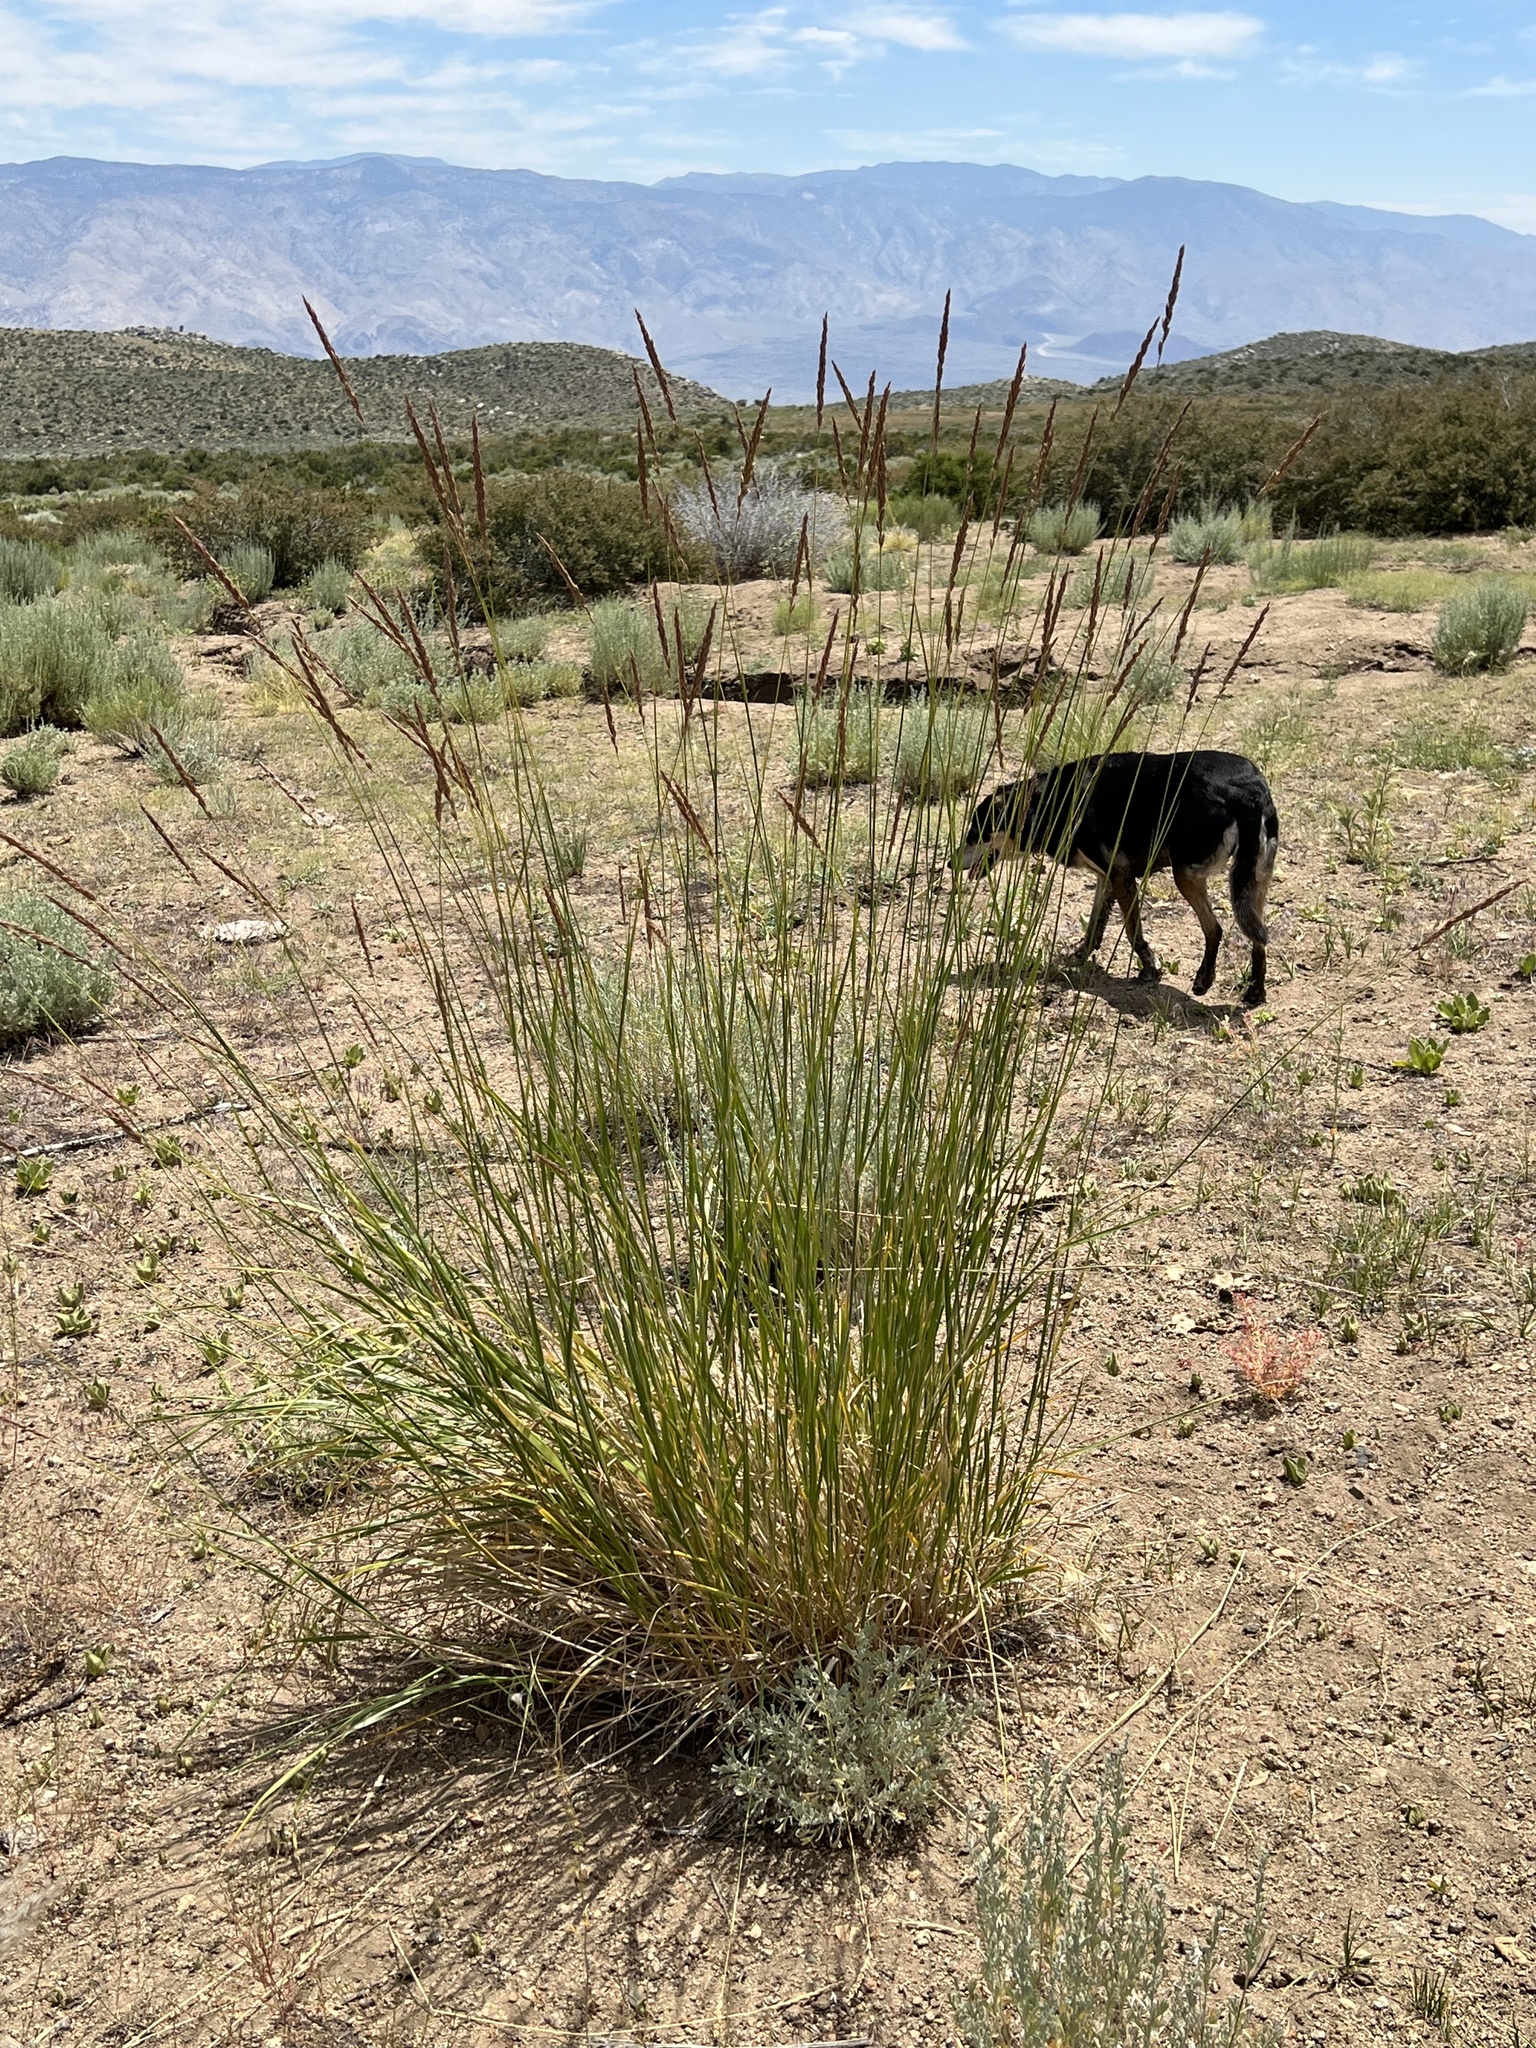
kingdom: Plantae
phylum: Tracheophyta
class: Liliopsida
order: Poales
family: Poaceae
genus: Leymus
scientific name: Leymus cinereus
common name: Basin wild rye
